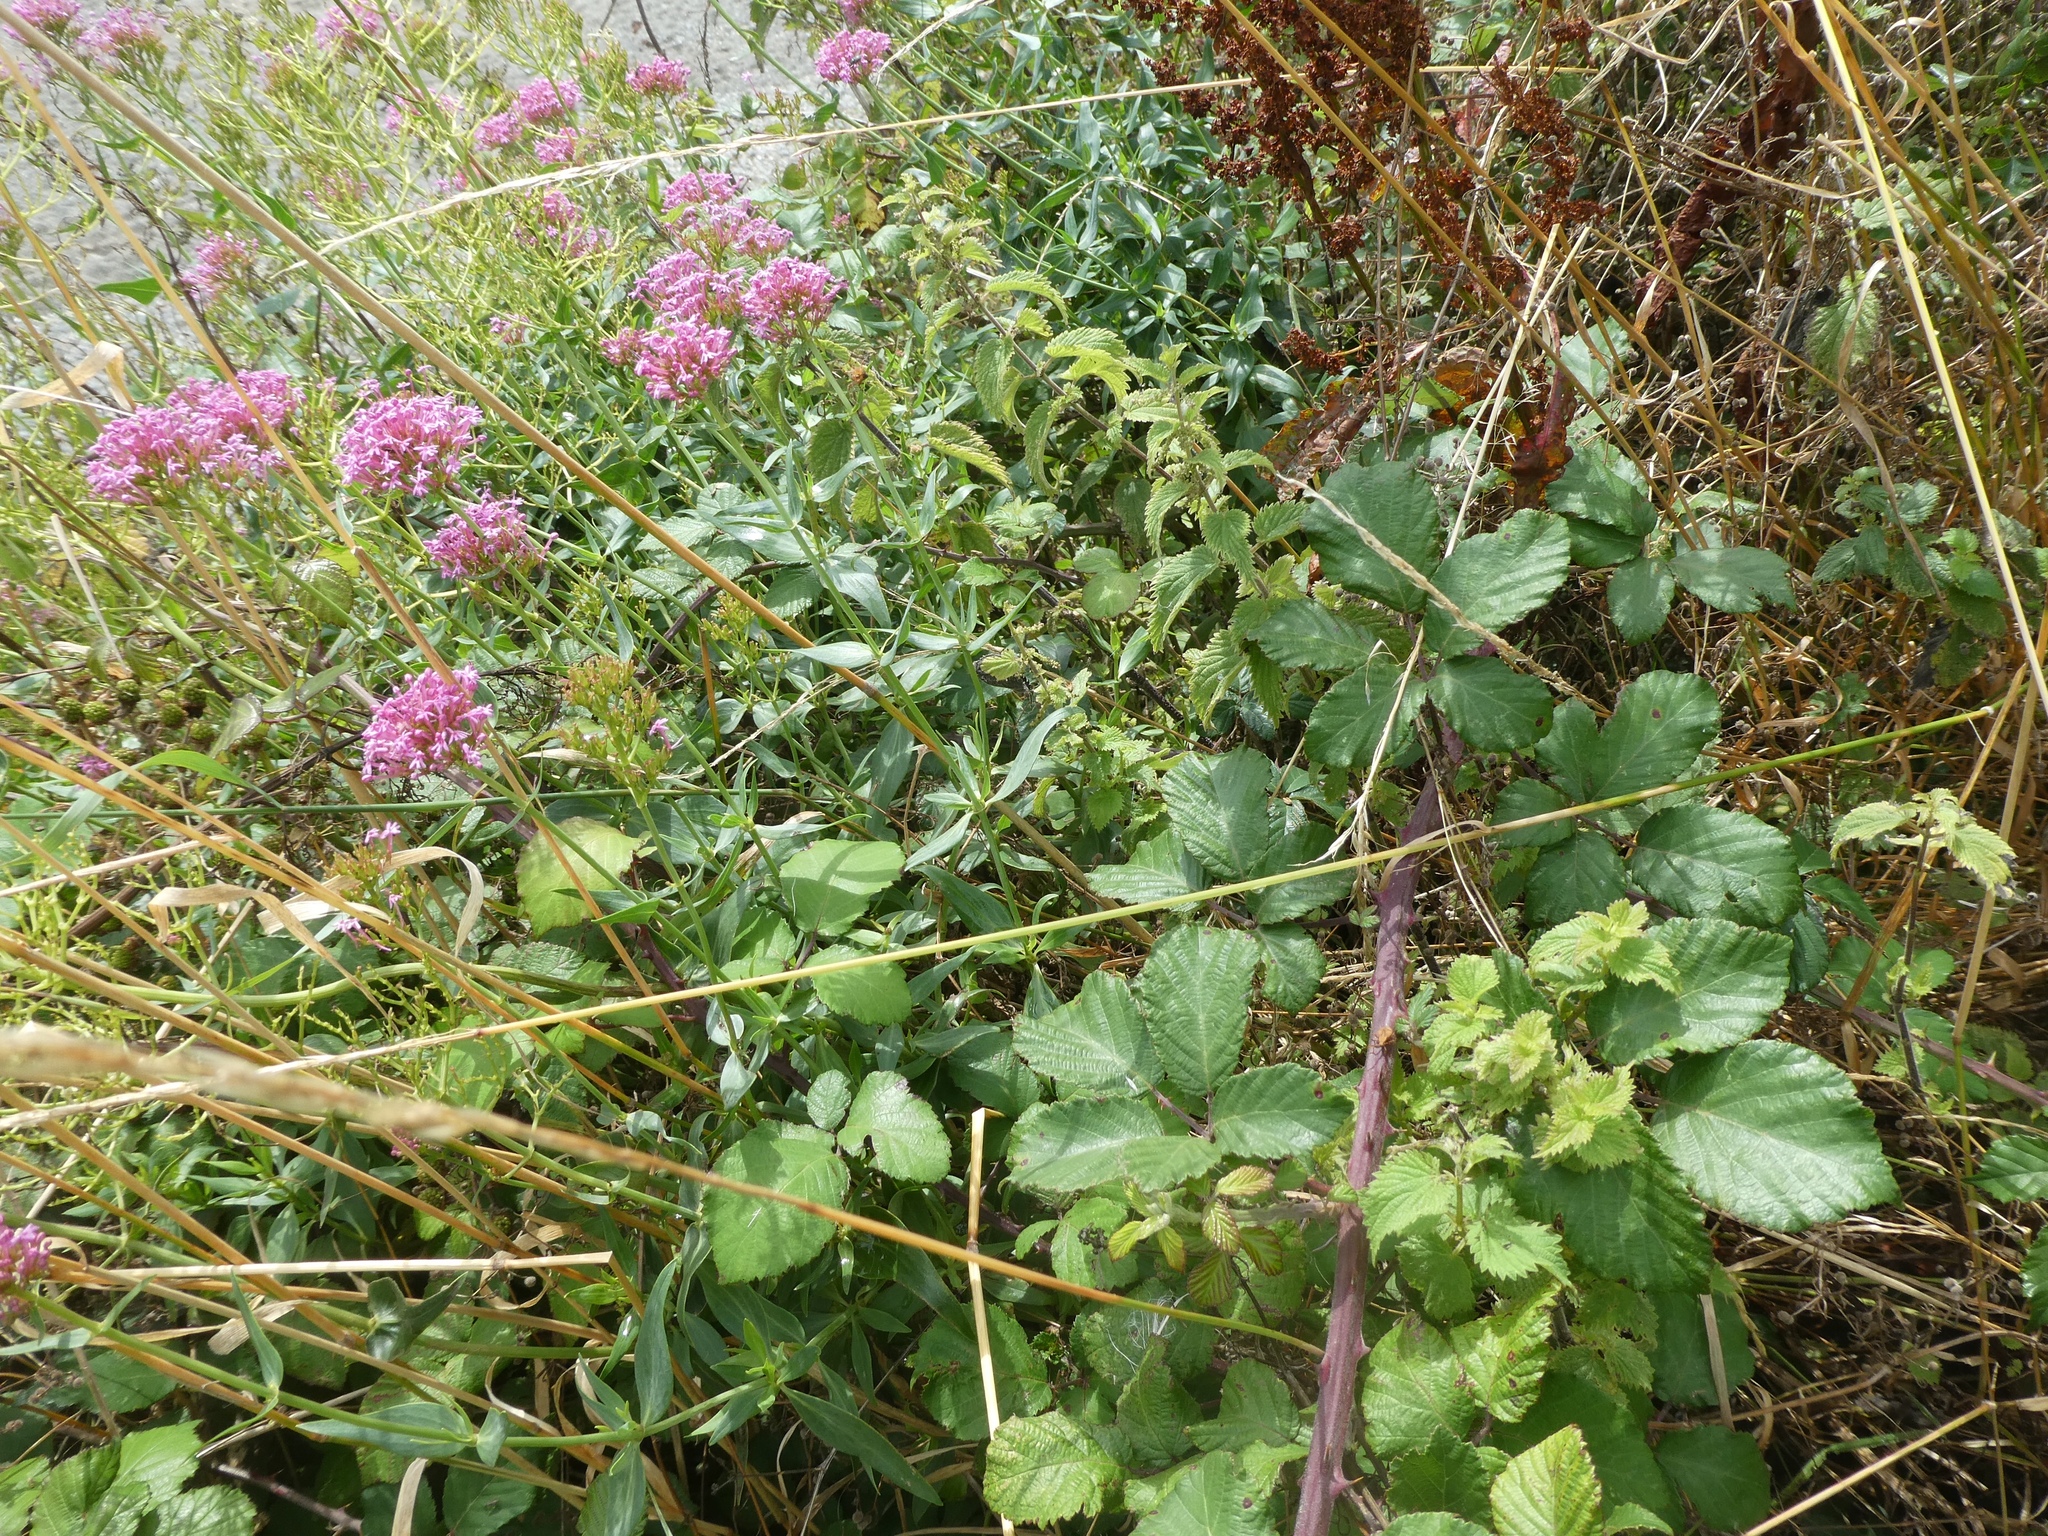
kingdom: Plantae
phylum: Tracheophyta
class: Magnoliopsida
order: Dipsacales
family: Caprifoliaceae
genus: Centranthus
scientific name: Centranthus ruber
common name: Red valerian
